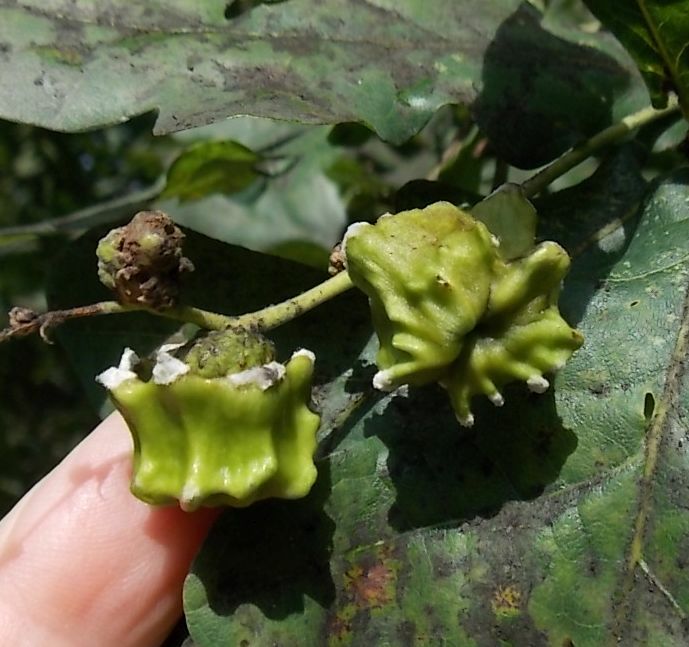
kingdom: Animalia
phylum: Arthropoda
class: Insecta
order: Hymenoptera
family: Cynipidae
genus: Andricus
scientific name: Andricus quercuscalicis
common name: Knopper gall
